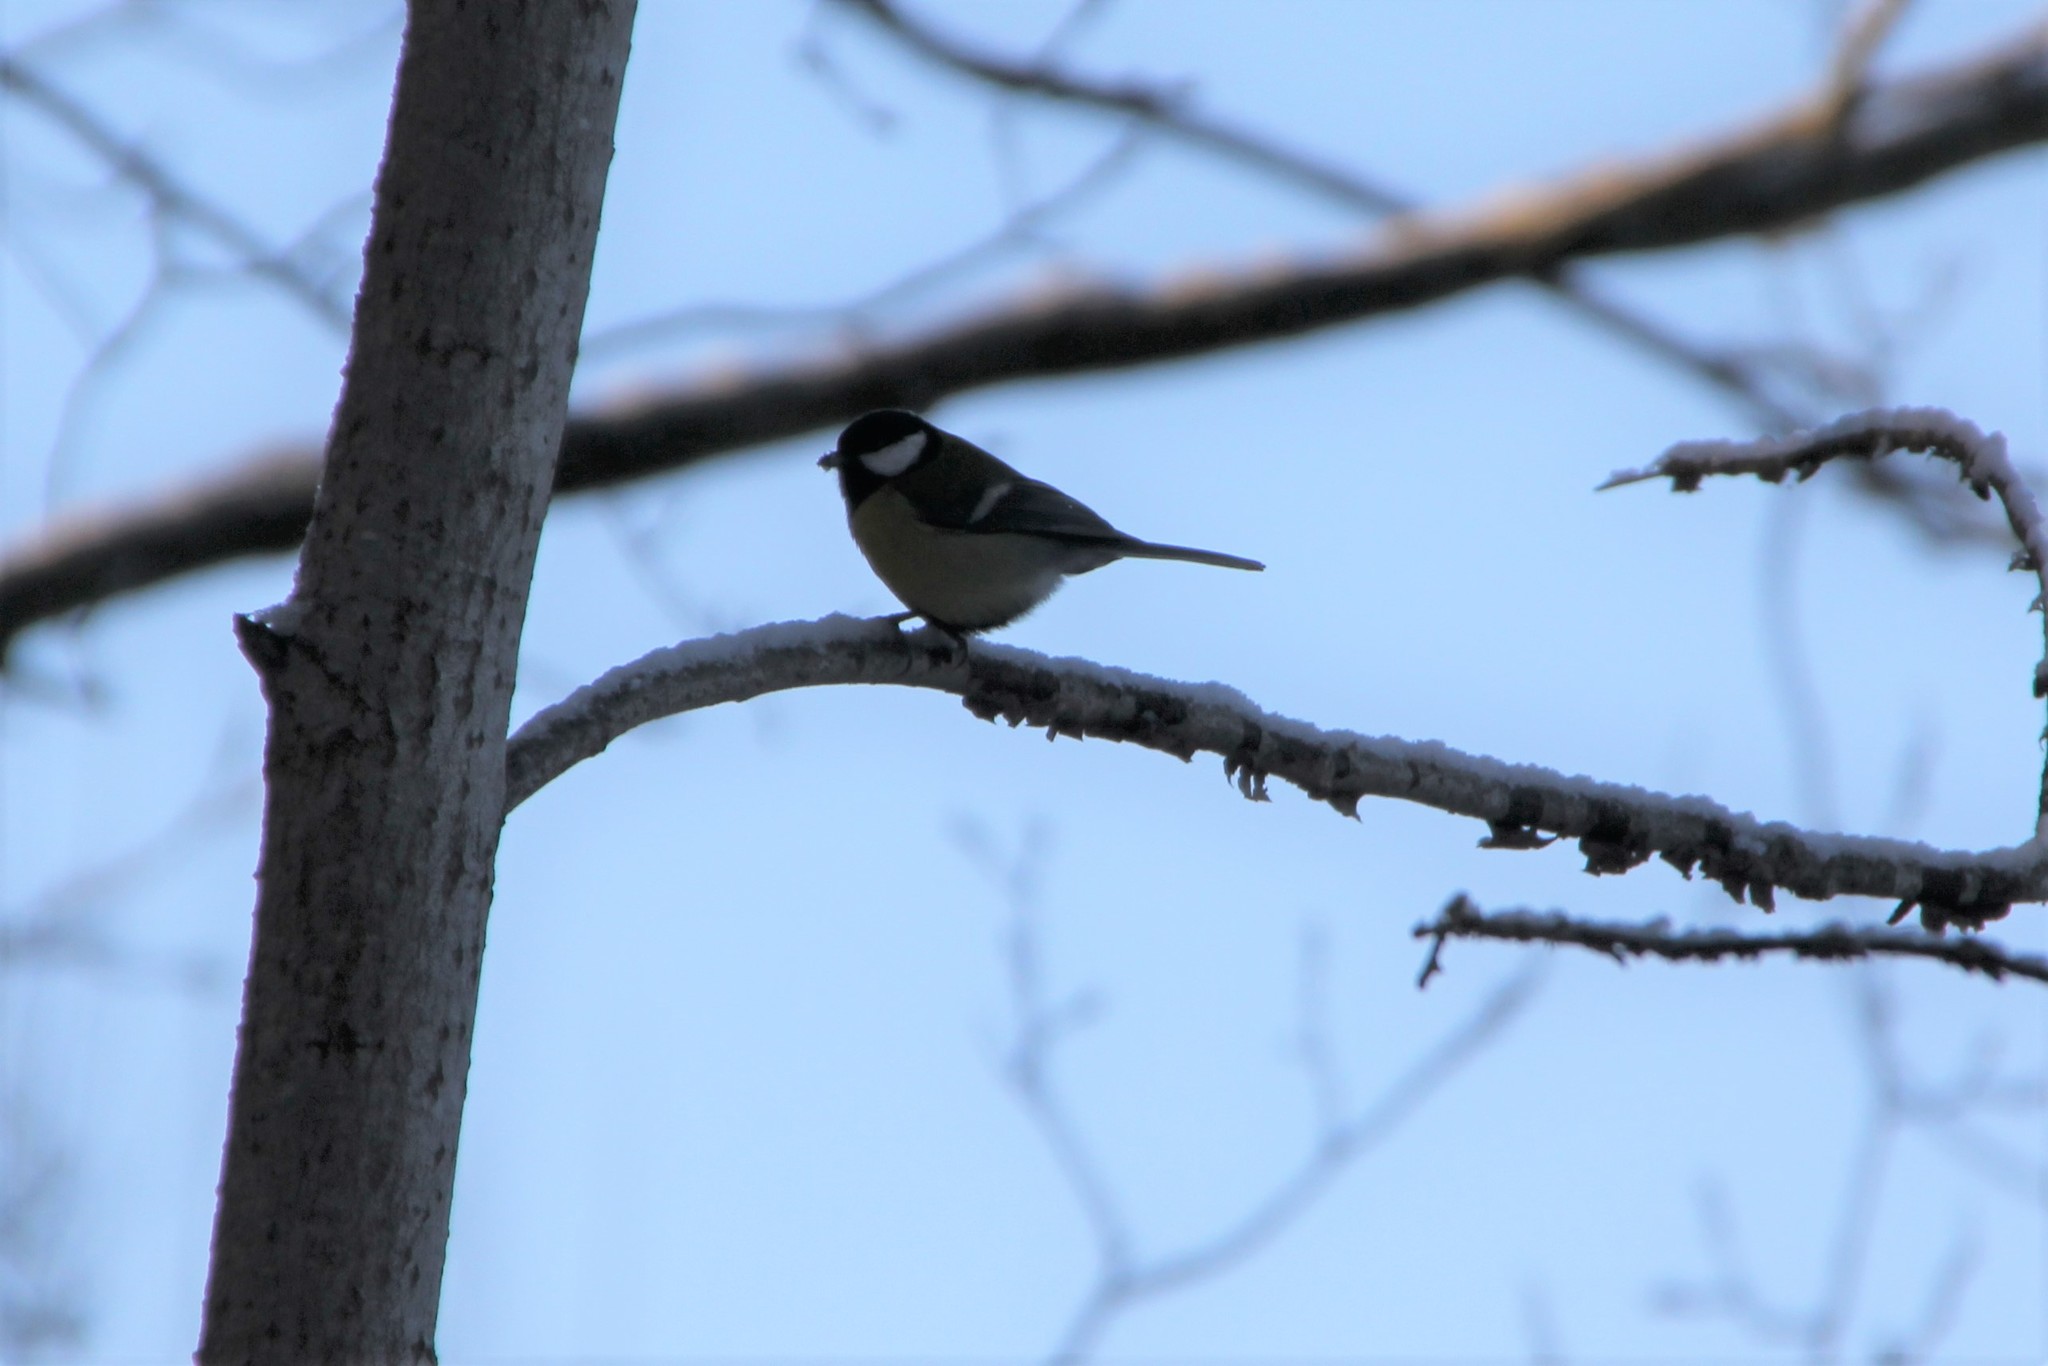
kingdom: Animalia
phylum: Chordata
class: Aves
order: Passeriformes
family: Paridae
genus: Parus
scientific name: Parus major
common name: Great tit
